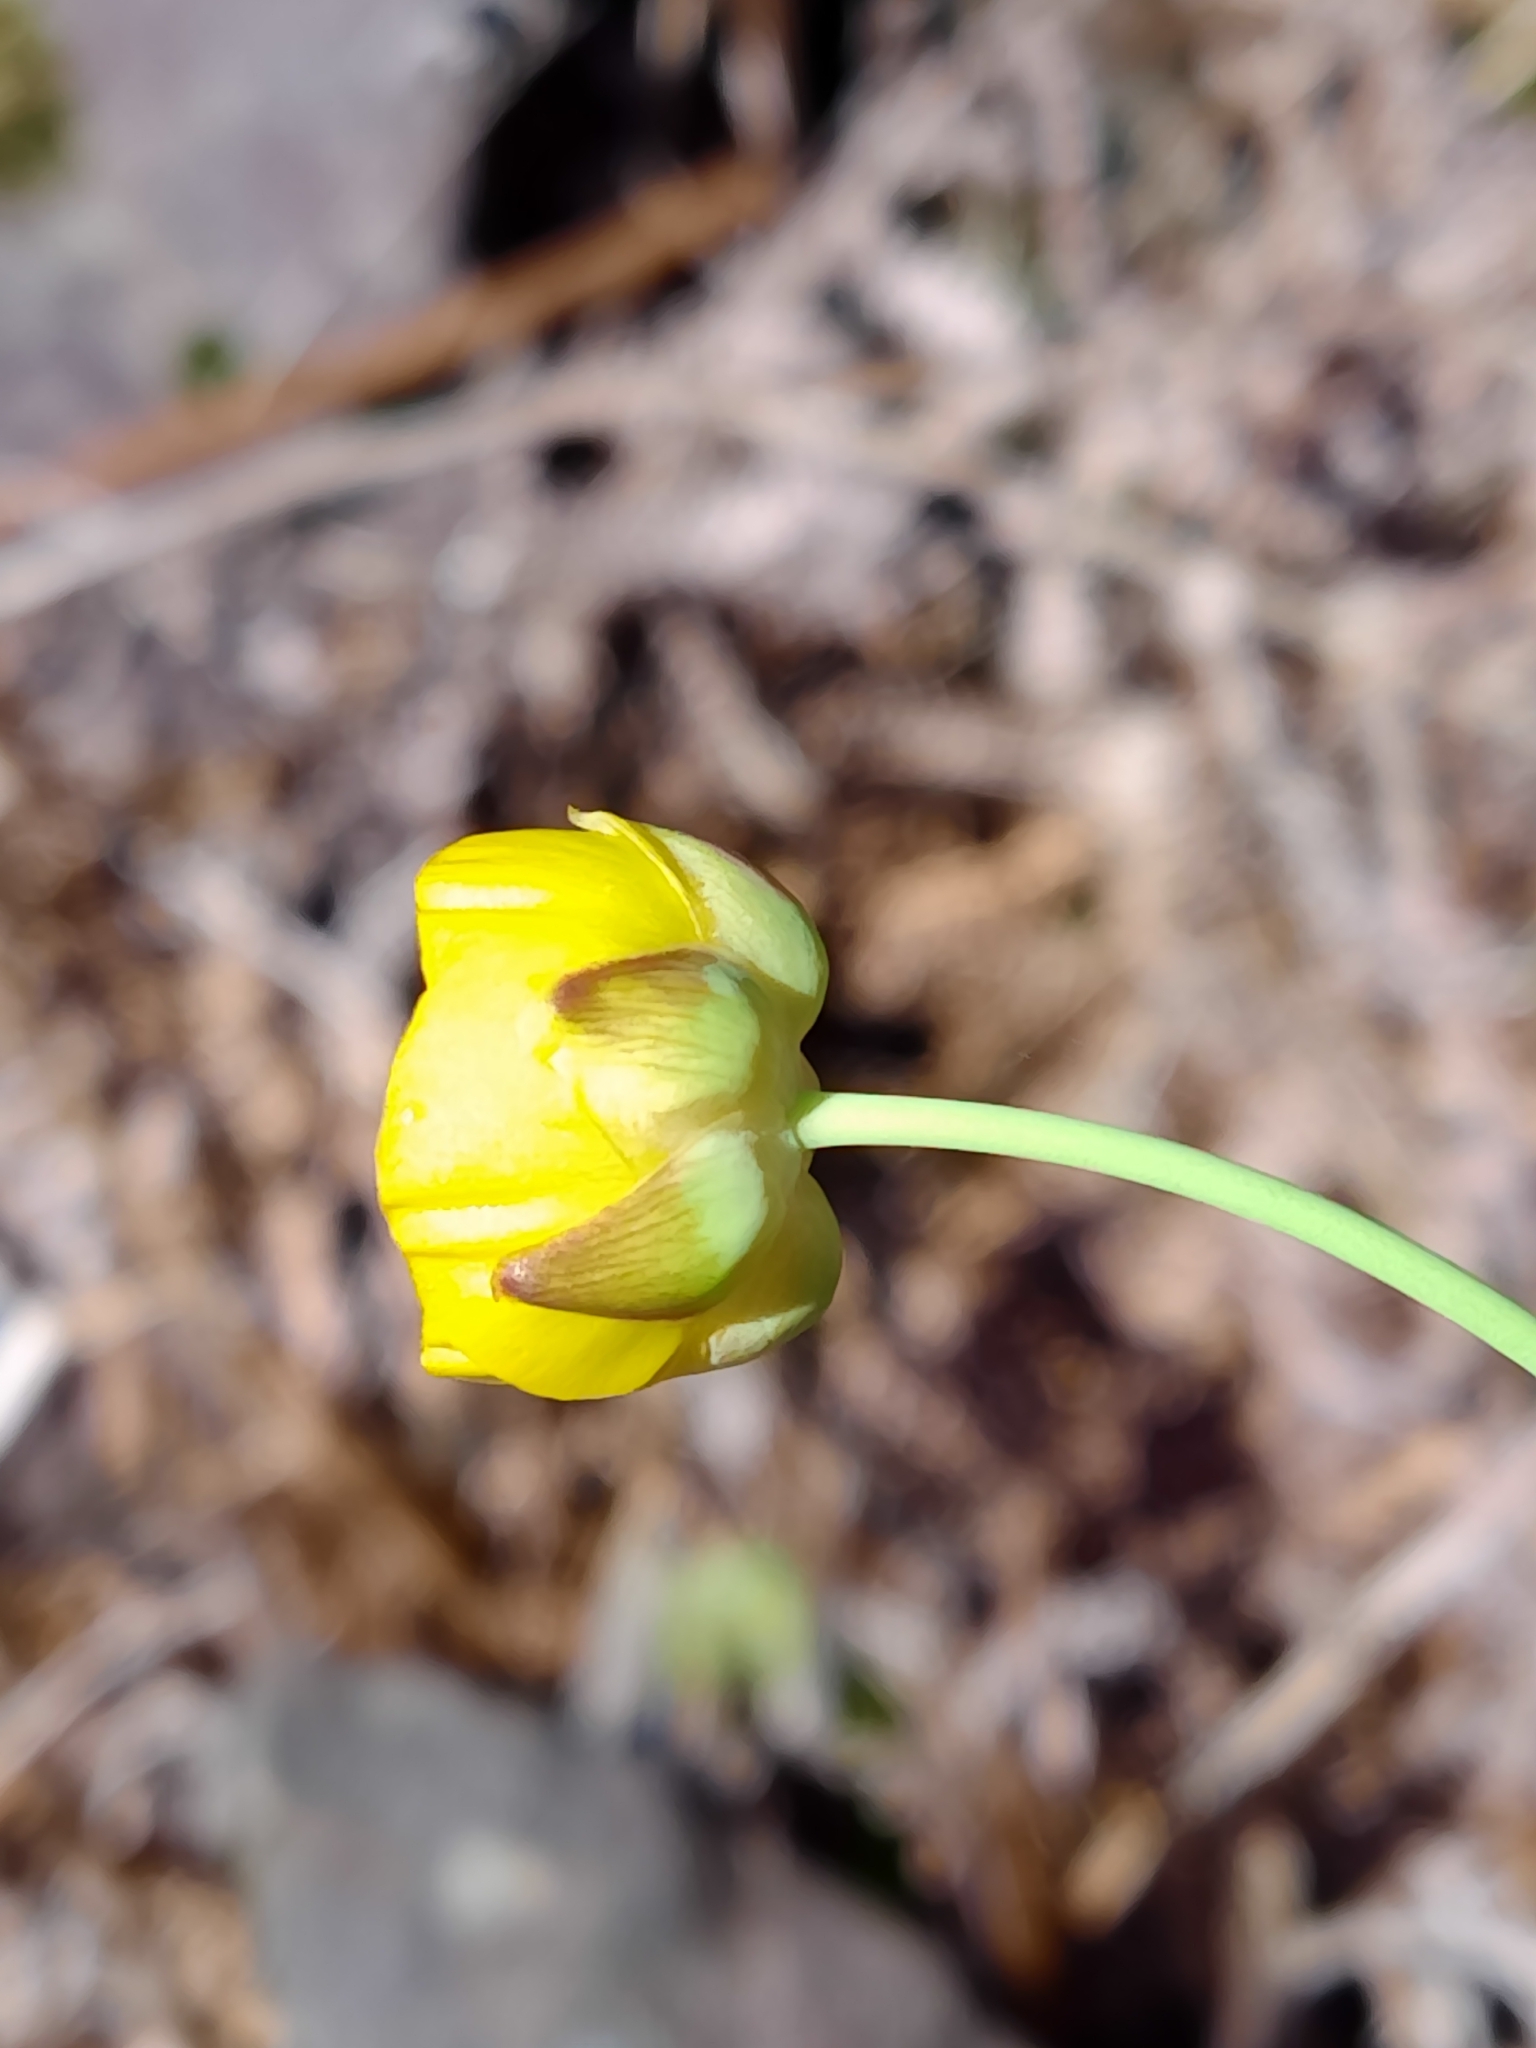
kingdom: Plantae
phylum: Tracheophyta
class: Magnoliopsida
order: Ranunculales
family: Ranunculaceae
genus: Ranunculus
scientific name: Ranunculus bupleuroides
